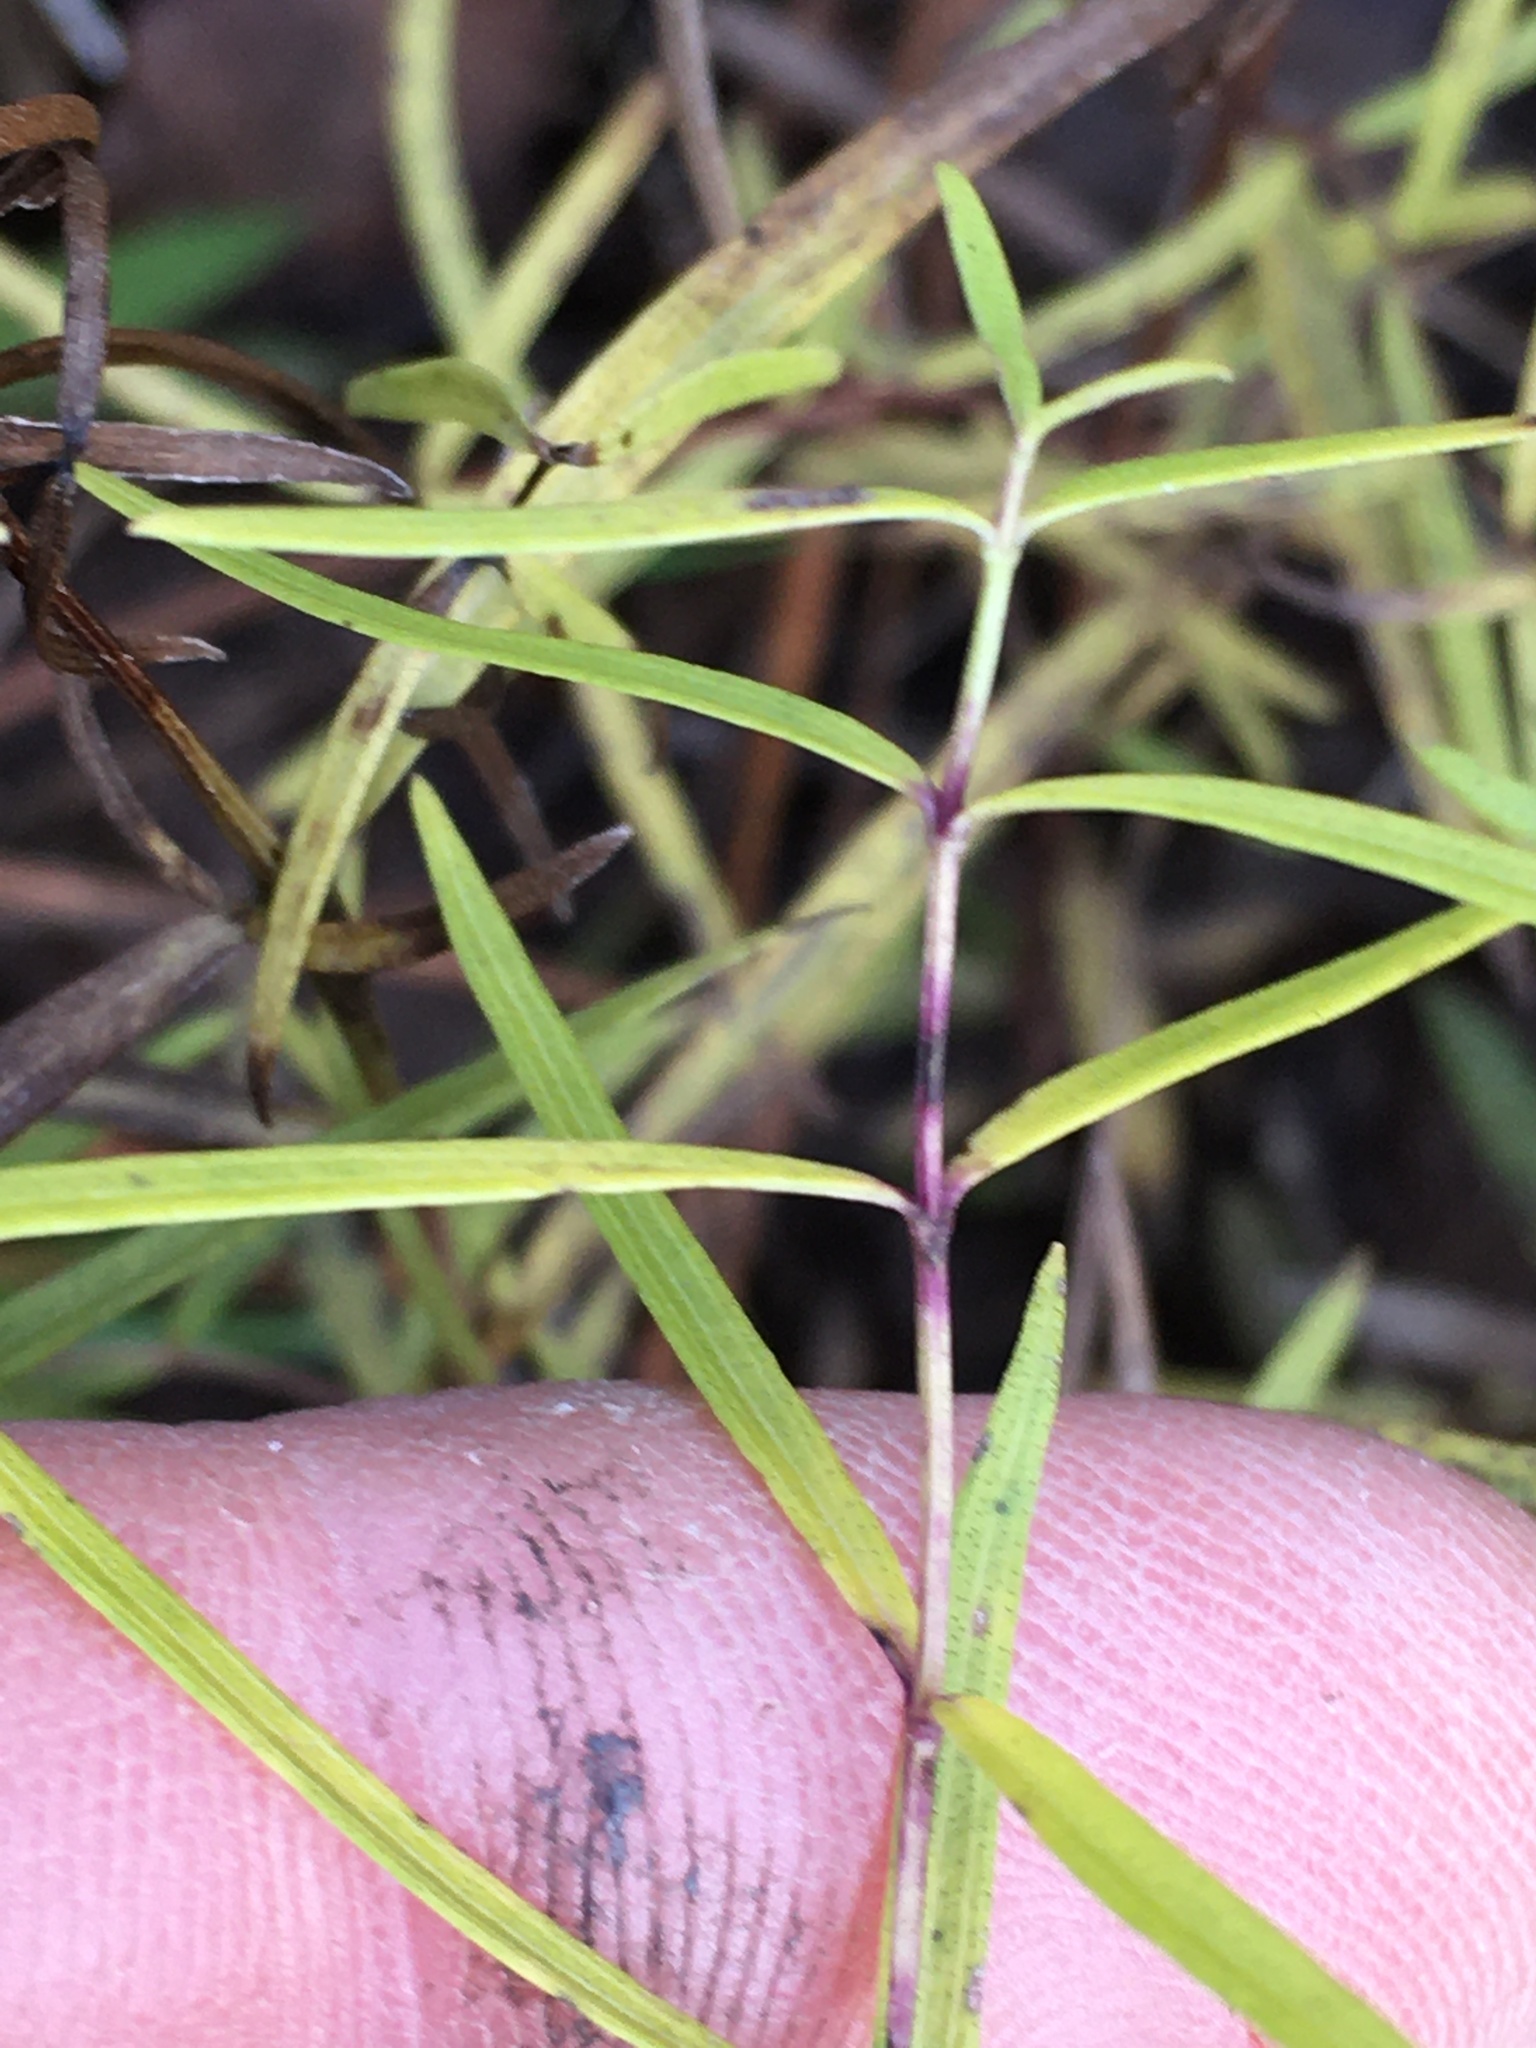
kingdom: Plantae
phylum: Tracheophyta
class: Magnoliopsida
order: Lamiales
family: Lamiaceae
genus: Pycnanthemum
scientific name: Pycnanthemum tenuifolium
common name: Narrow-leaf mountain-mint
